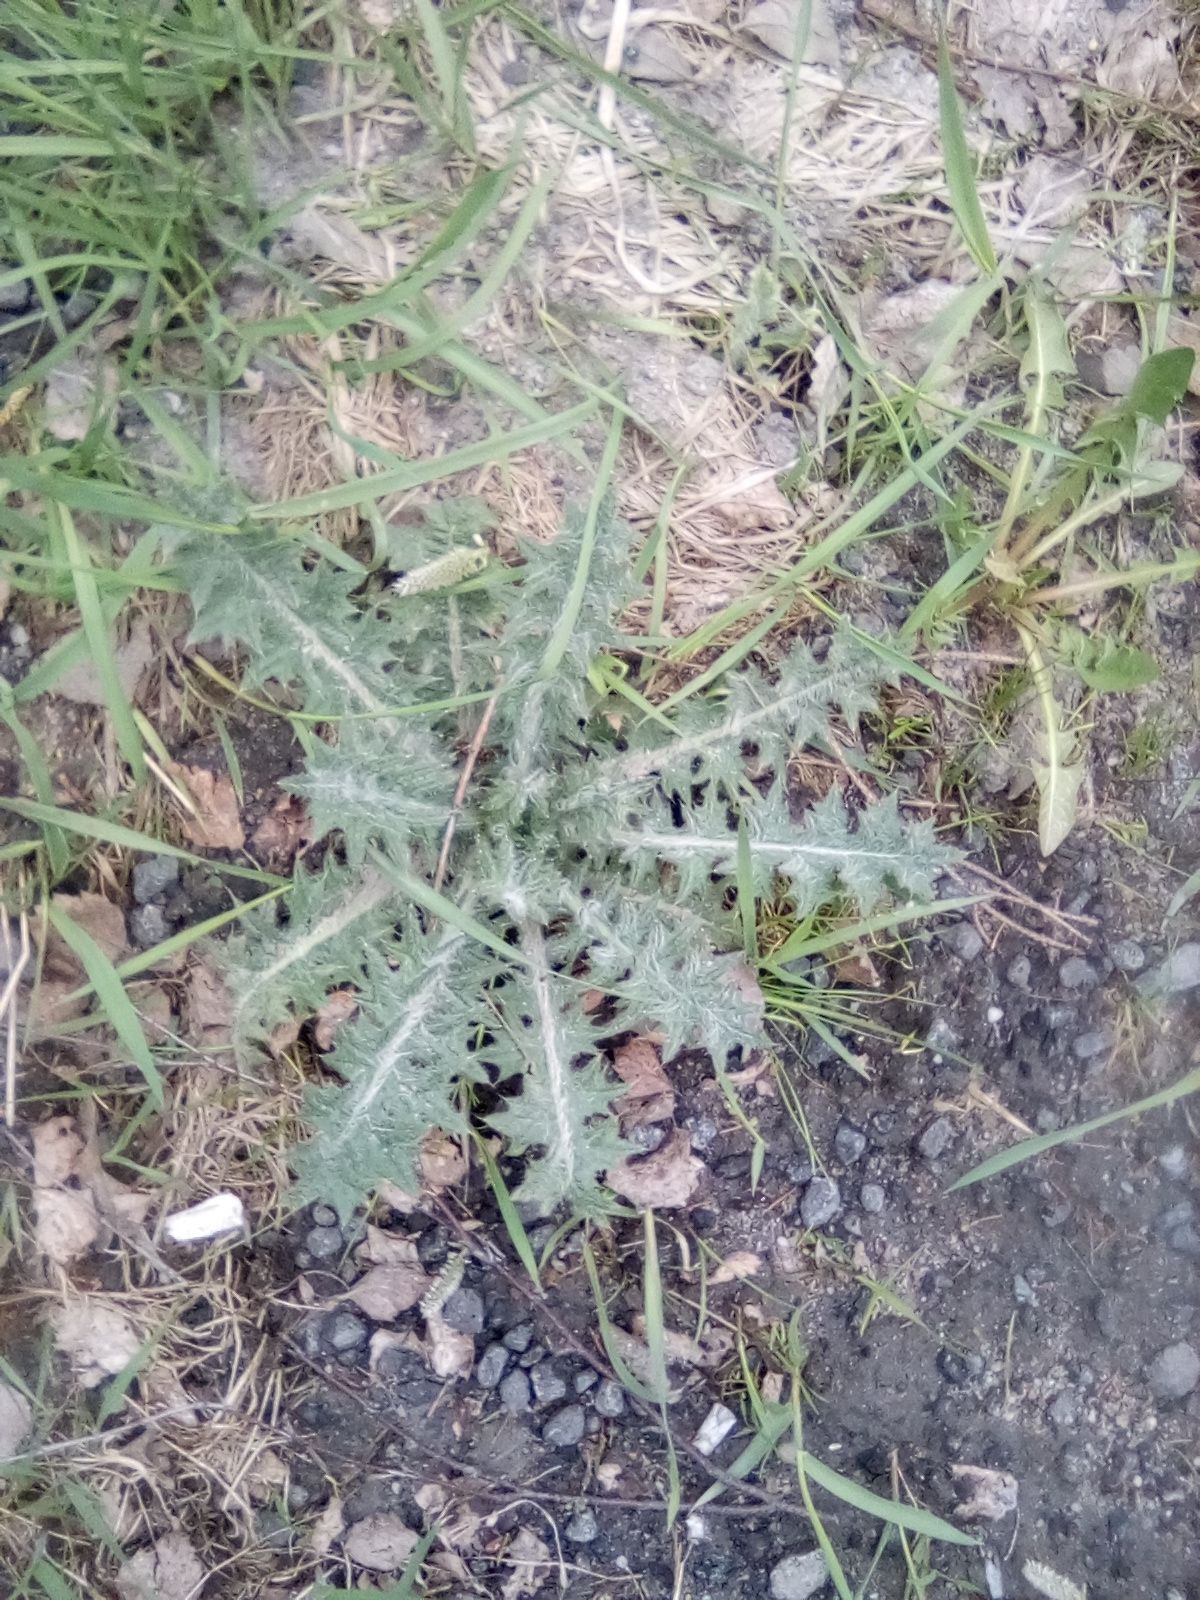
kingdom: Plantae
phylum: Tracheophyta
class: Magnoliopsida
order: Asterales
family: Asteraceae
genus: Cirsium
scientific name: Cirsium vulgare
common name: Bull thistle
